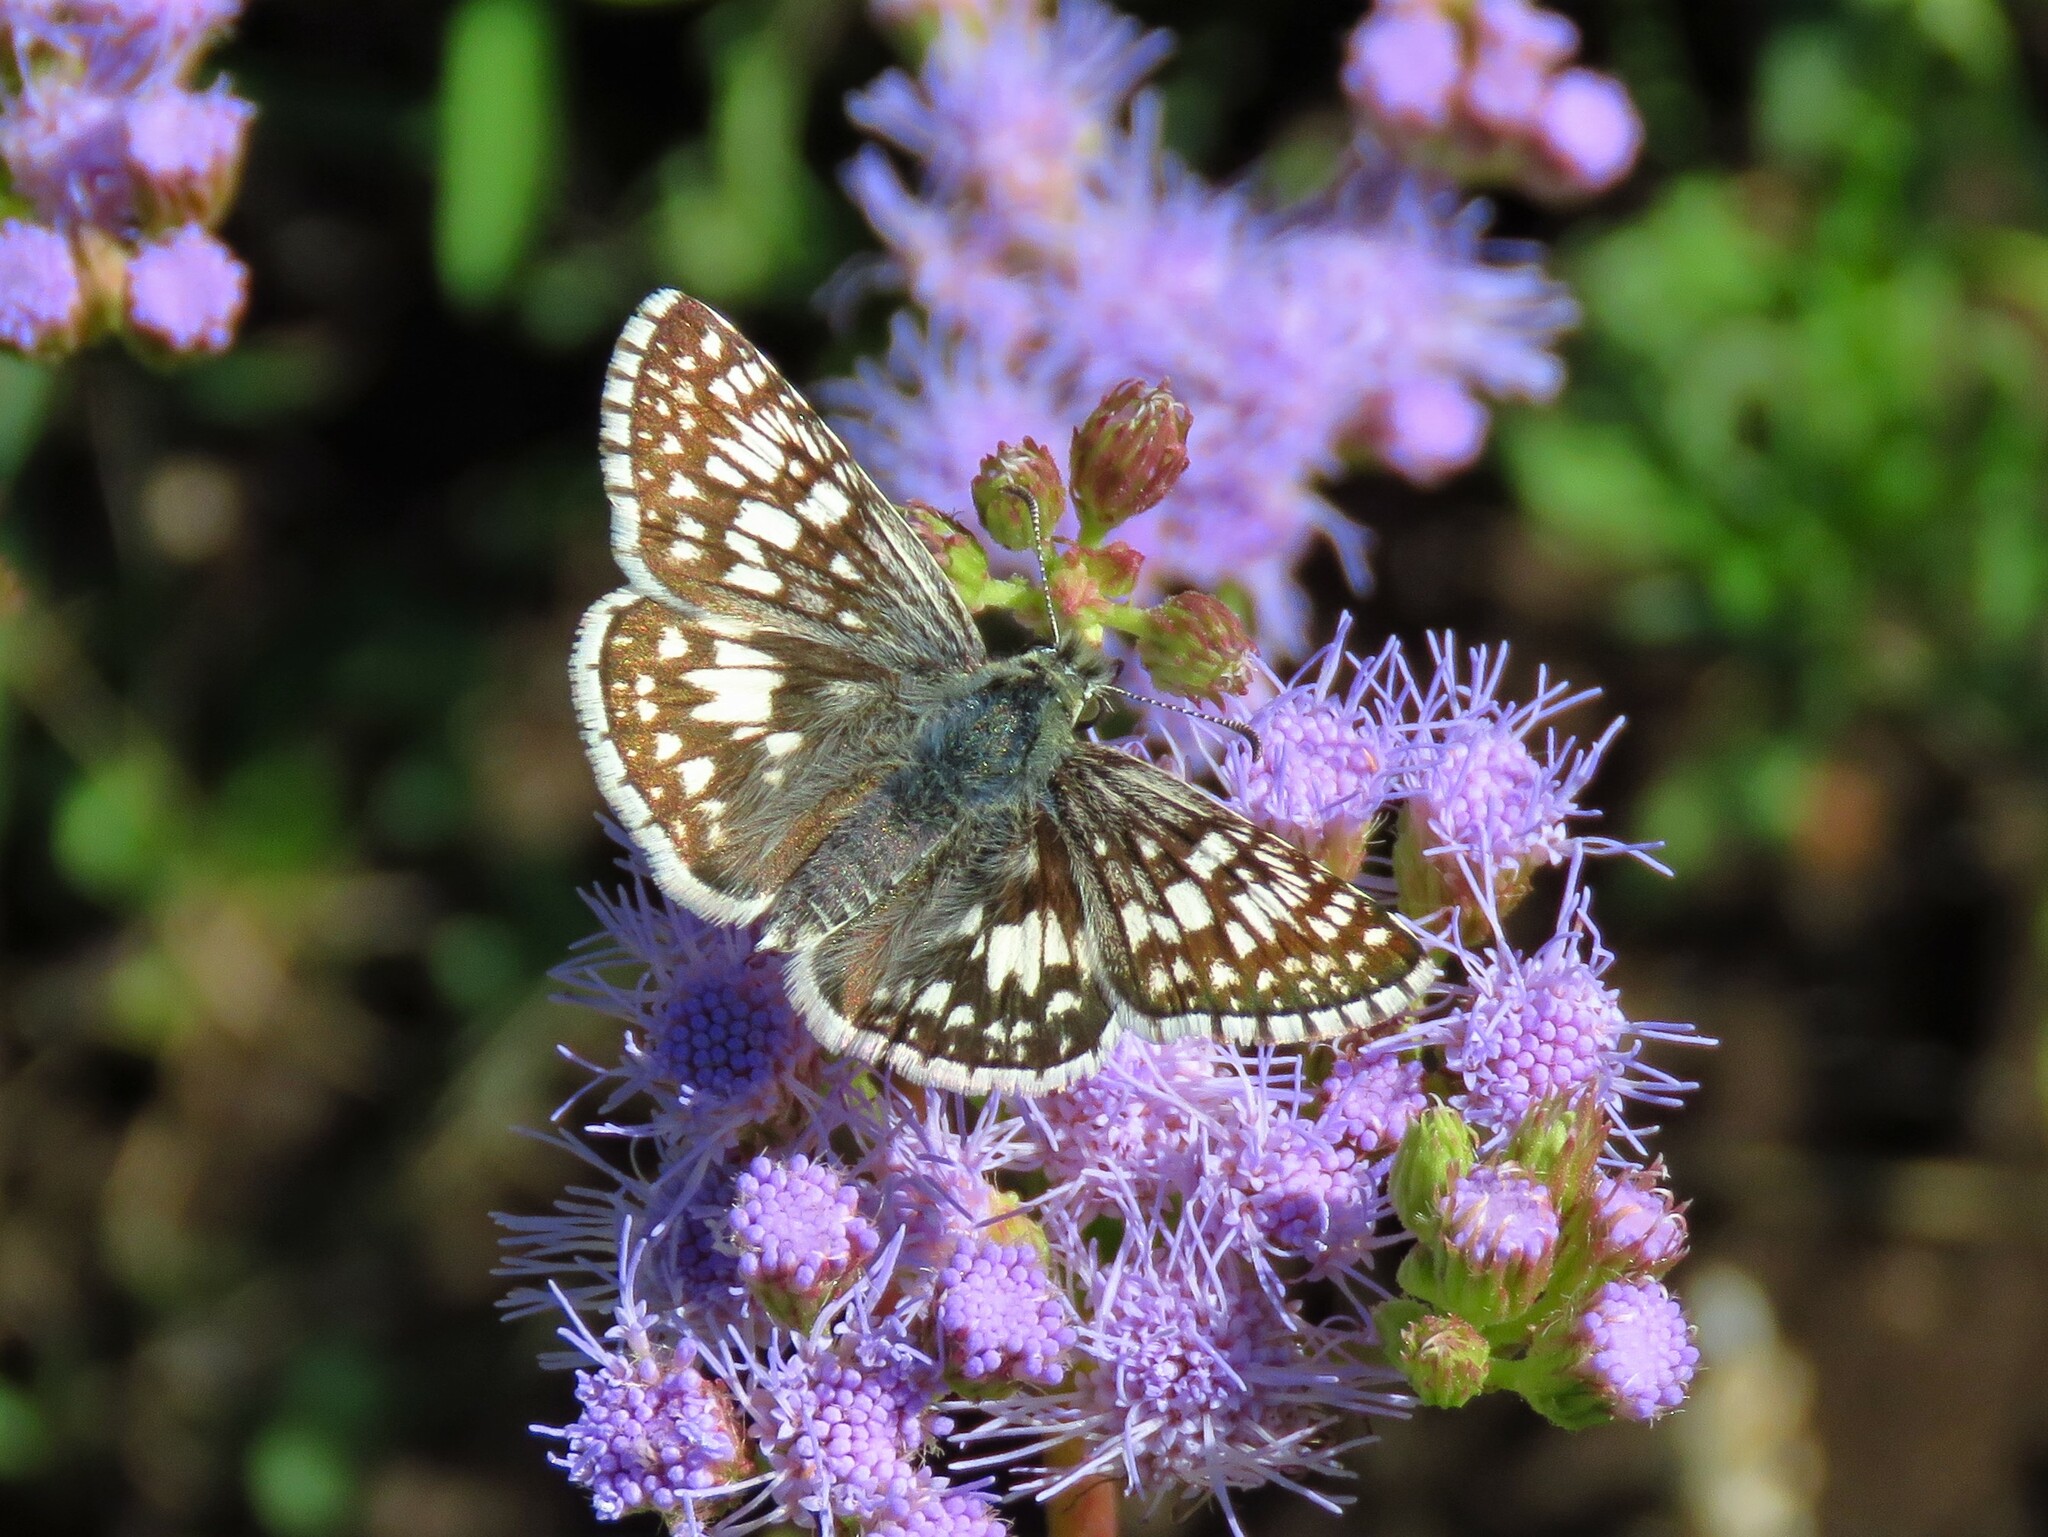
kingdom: Animalia
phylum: Arthropoda
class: Insecta
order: Lepidoptera
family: Hesperiidae
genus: Burnsius
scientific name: Burnsius
